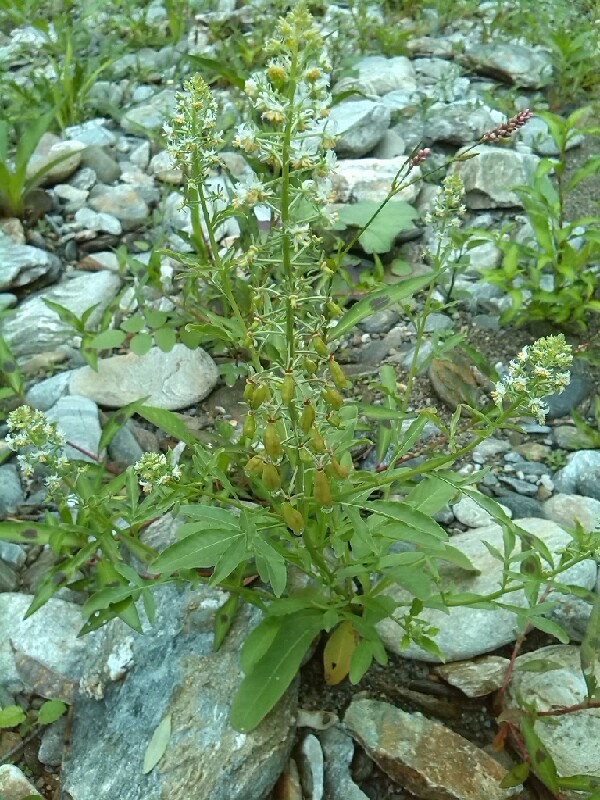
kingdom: Plantae
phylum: Tracheophyta
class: Magnoliopsida
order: Brassicales
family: Resedaceae
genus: Reseda
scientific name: Reseda phyteuma
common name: Corn mignonette
